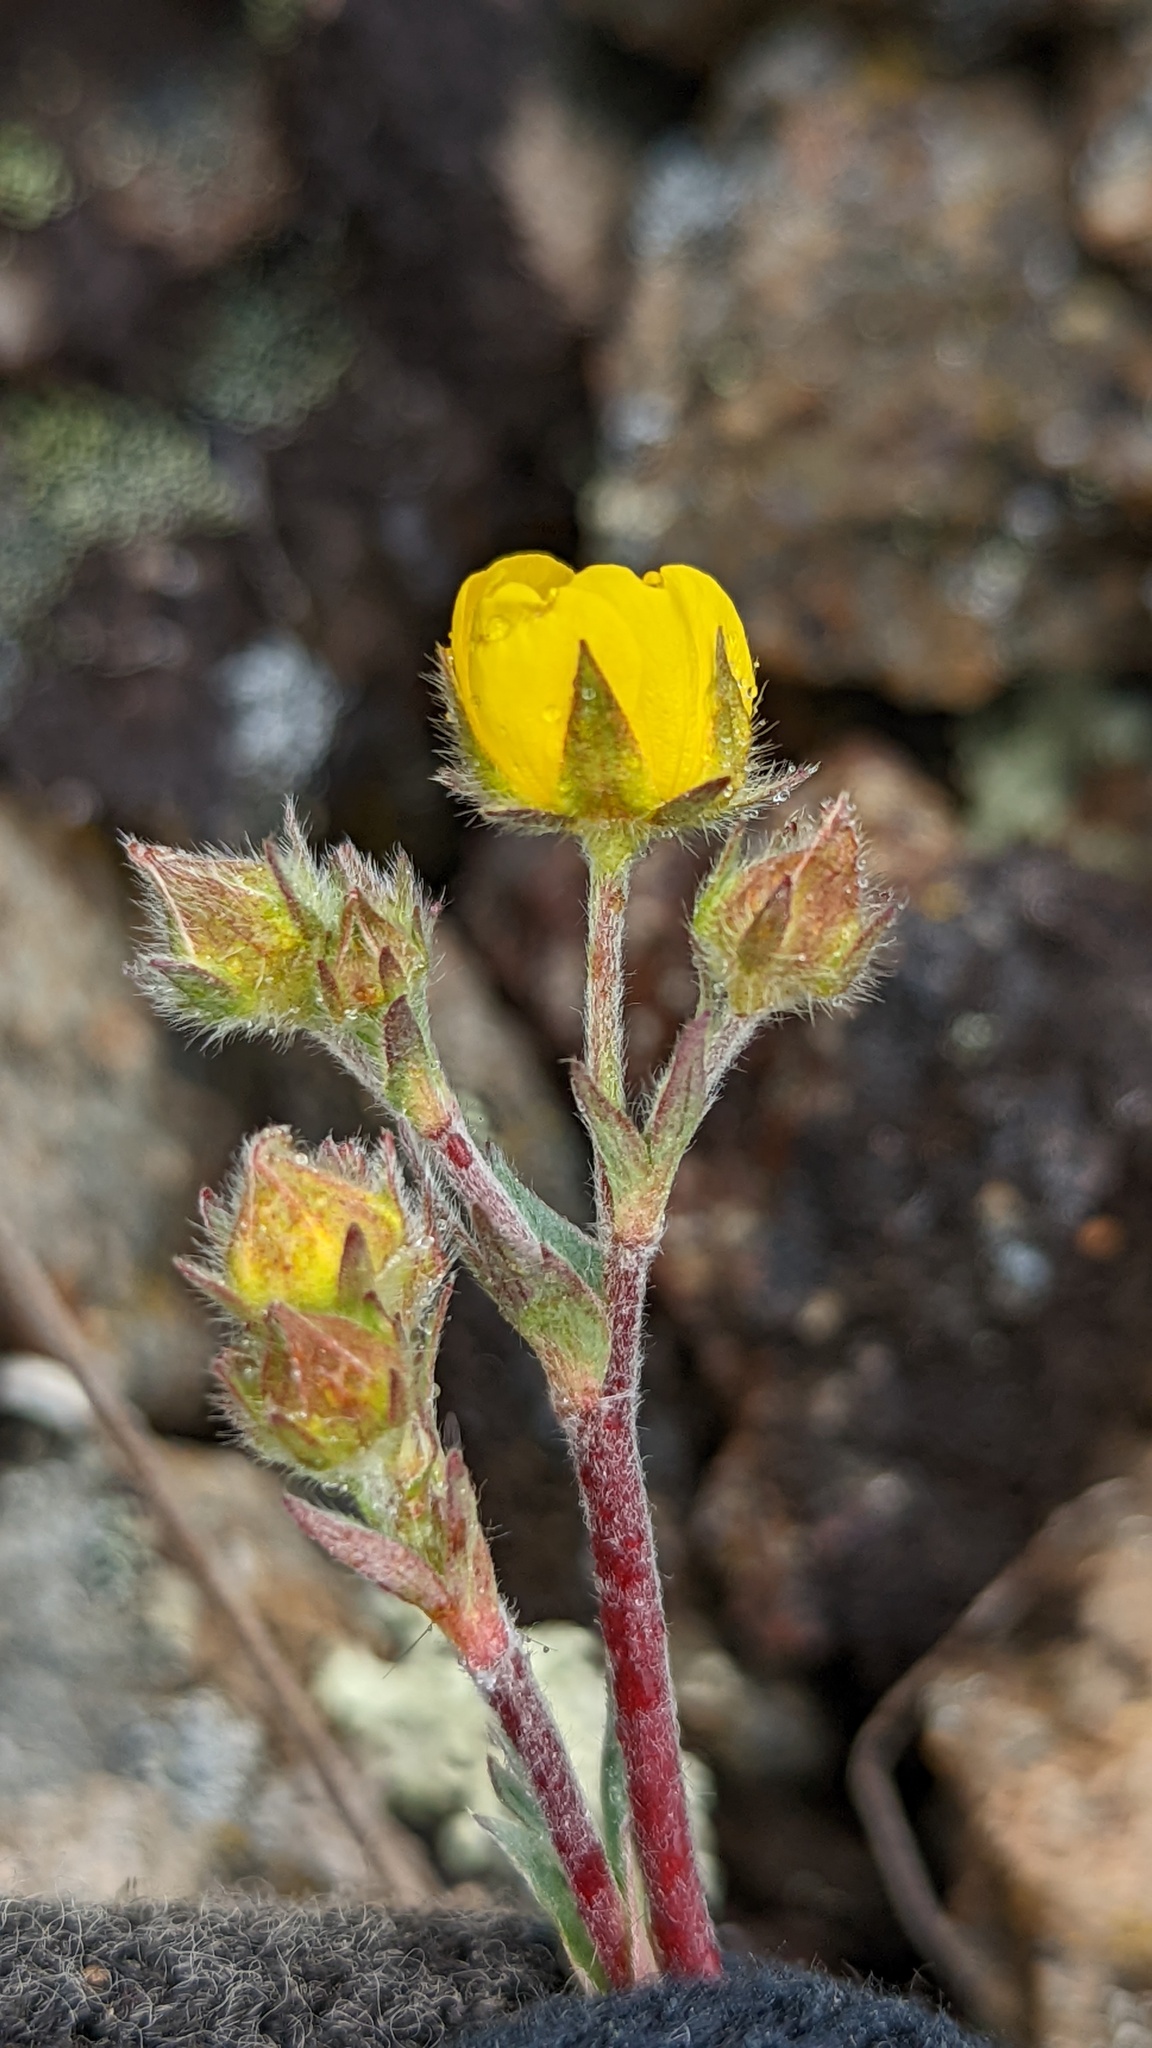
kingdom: Plantae
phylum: Tracheophyta
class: Magnoliopsida
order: Rosales
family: Rosaceae
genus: Potentilla
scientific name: Potentilla glaucophylla
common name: Blue-leaved cinquefoil
